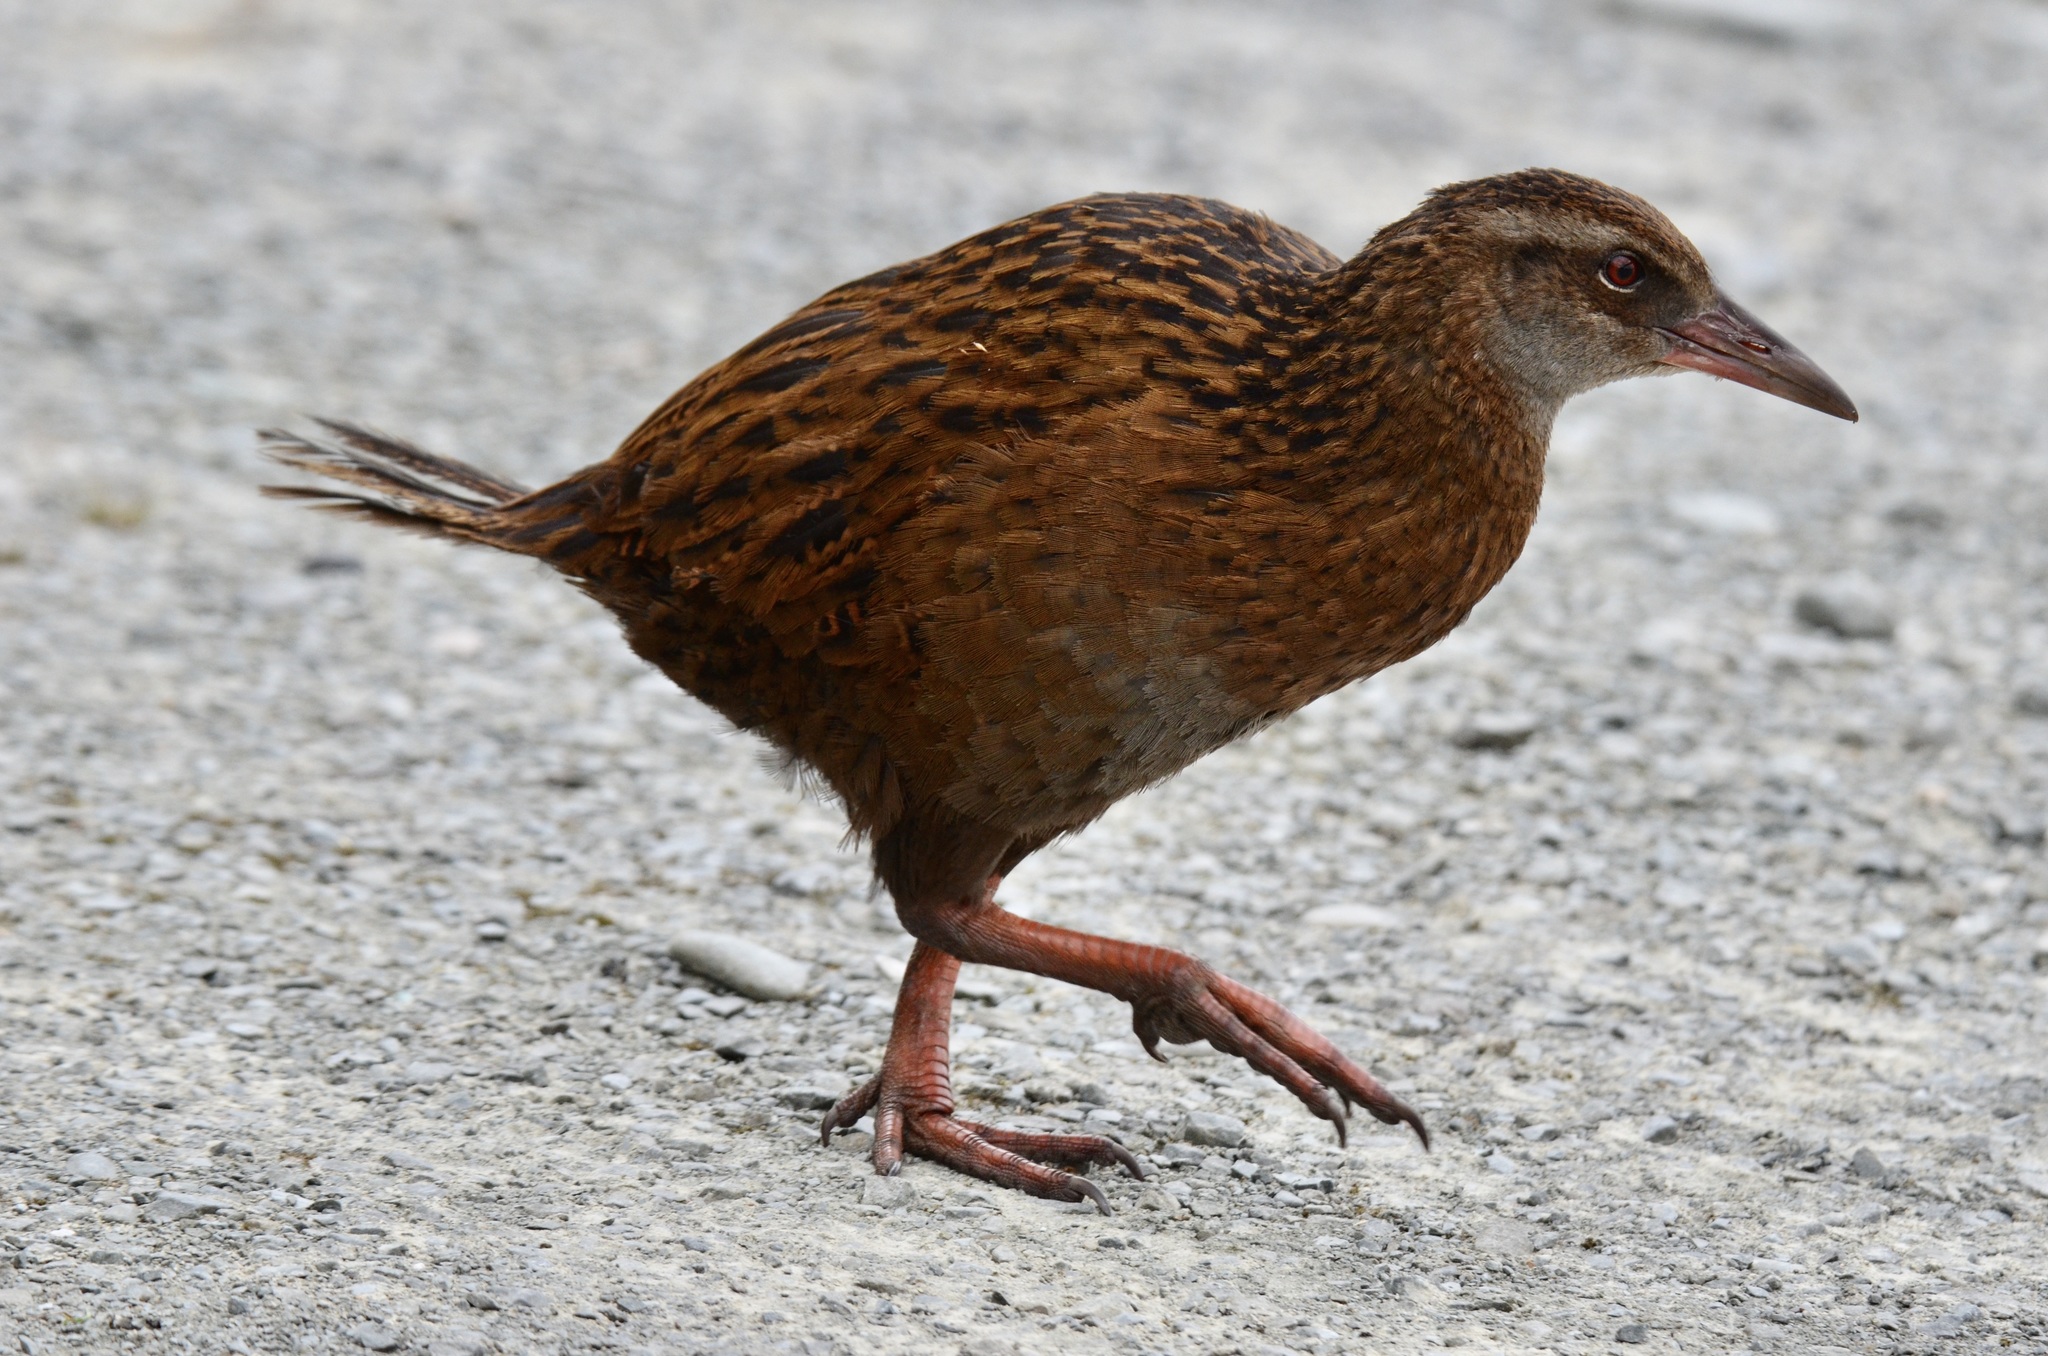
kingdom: Animalia
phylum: Chordata
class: Aves
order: Gruiformes
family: Rallidae
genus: Gallirallus
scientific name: Gallirallus australis
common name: Weka
